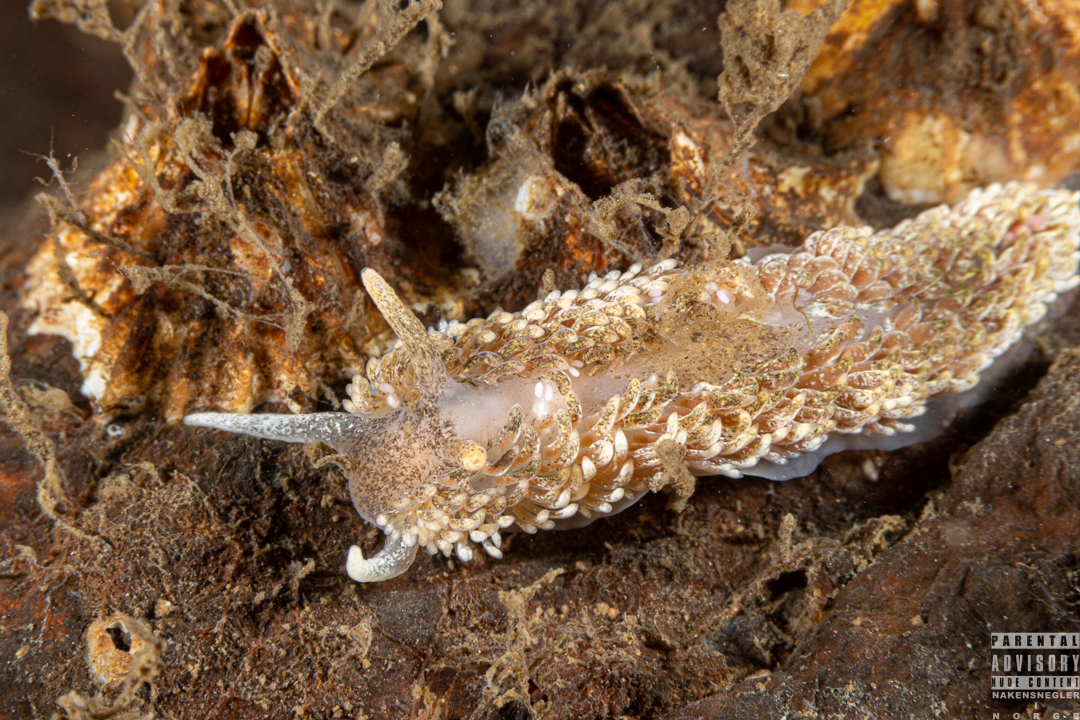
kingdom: Animalia
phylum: Mollusca
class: Gastropoda
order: Nudibranchia
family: Aeolidiidae
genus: Aeolidia
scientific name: Aeolidia papillosa
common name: Common grey sea slug
